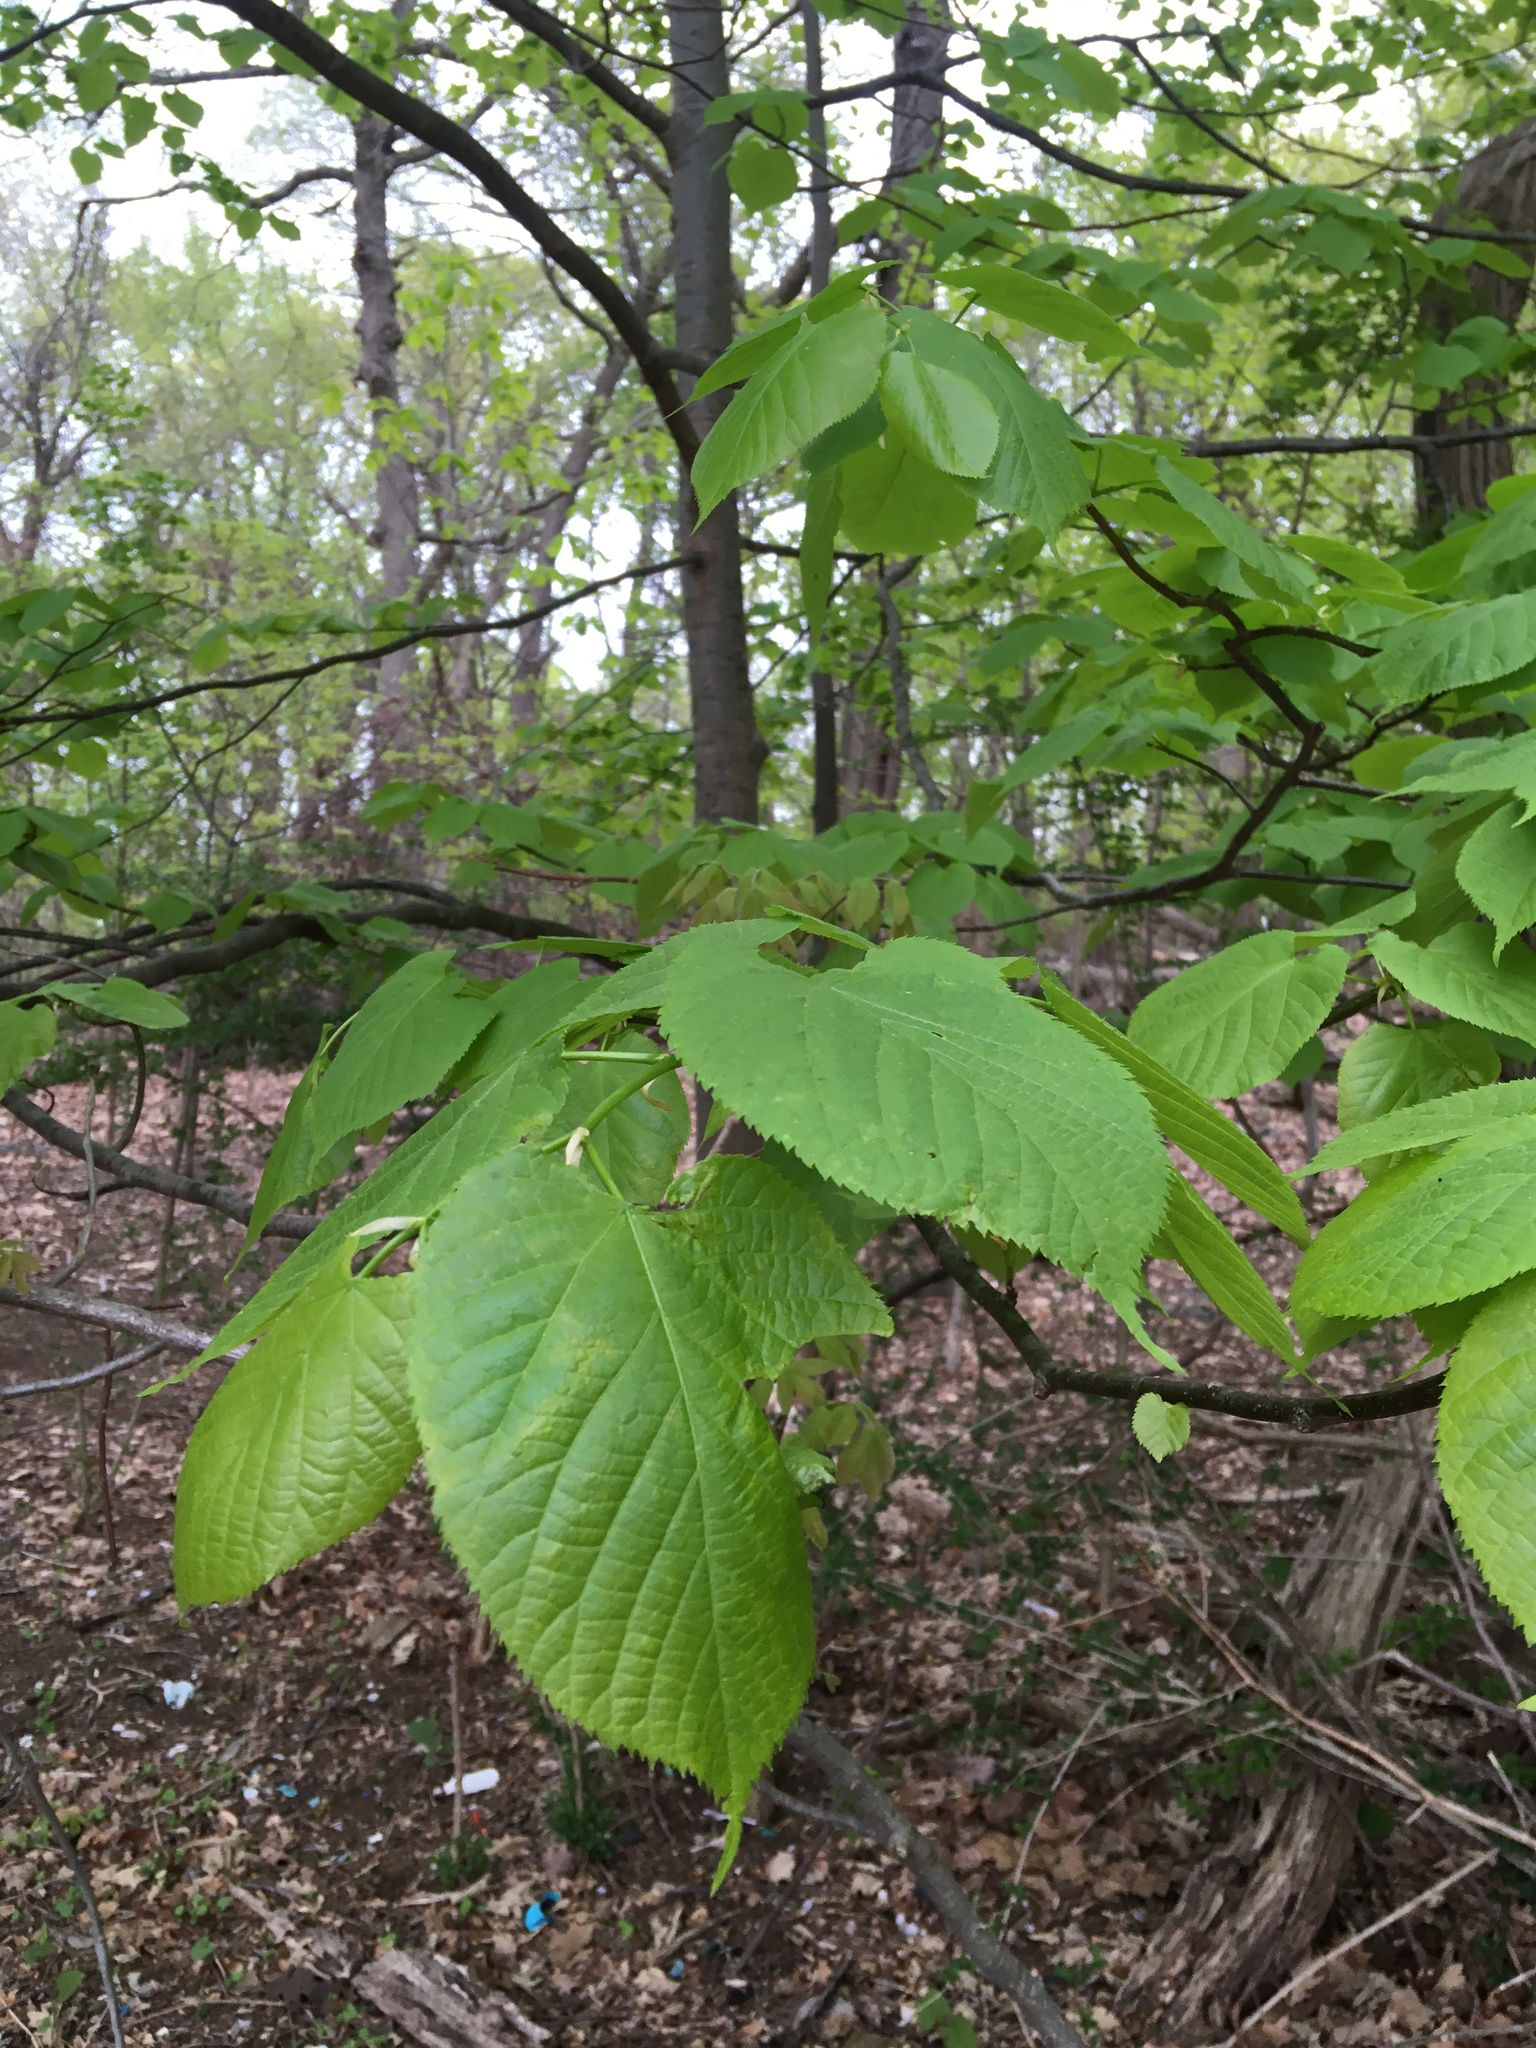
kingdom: Plantae
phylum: Tracheophyta
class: Magnoliopsida
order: Malvales
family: Malvaceae
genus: Tilia
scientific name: Tilia americana
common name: Basswood
